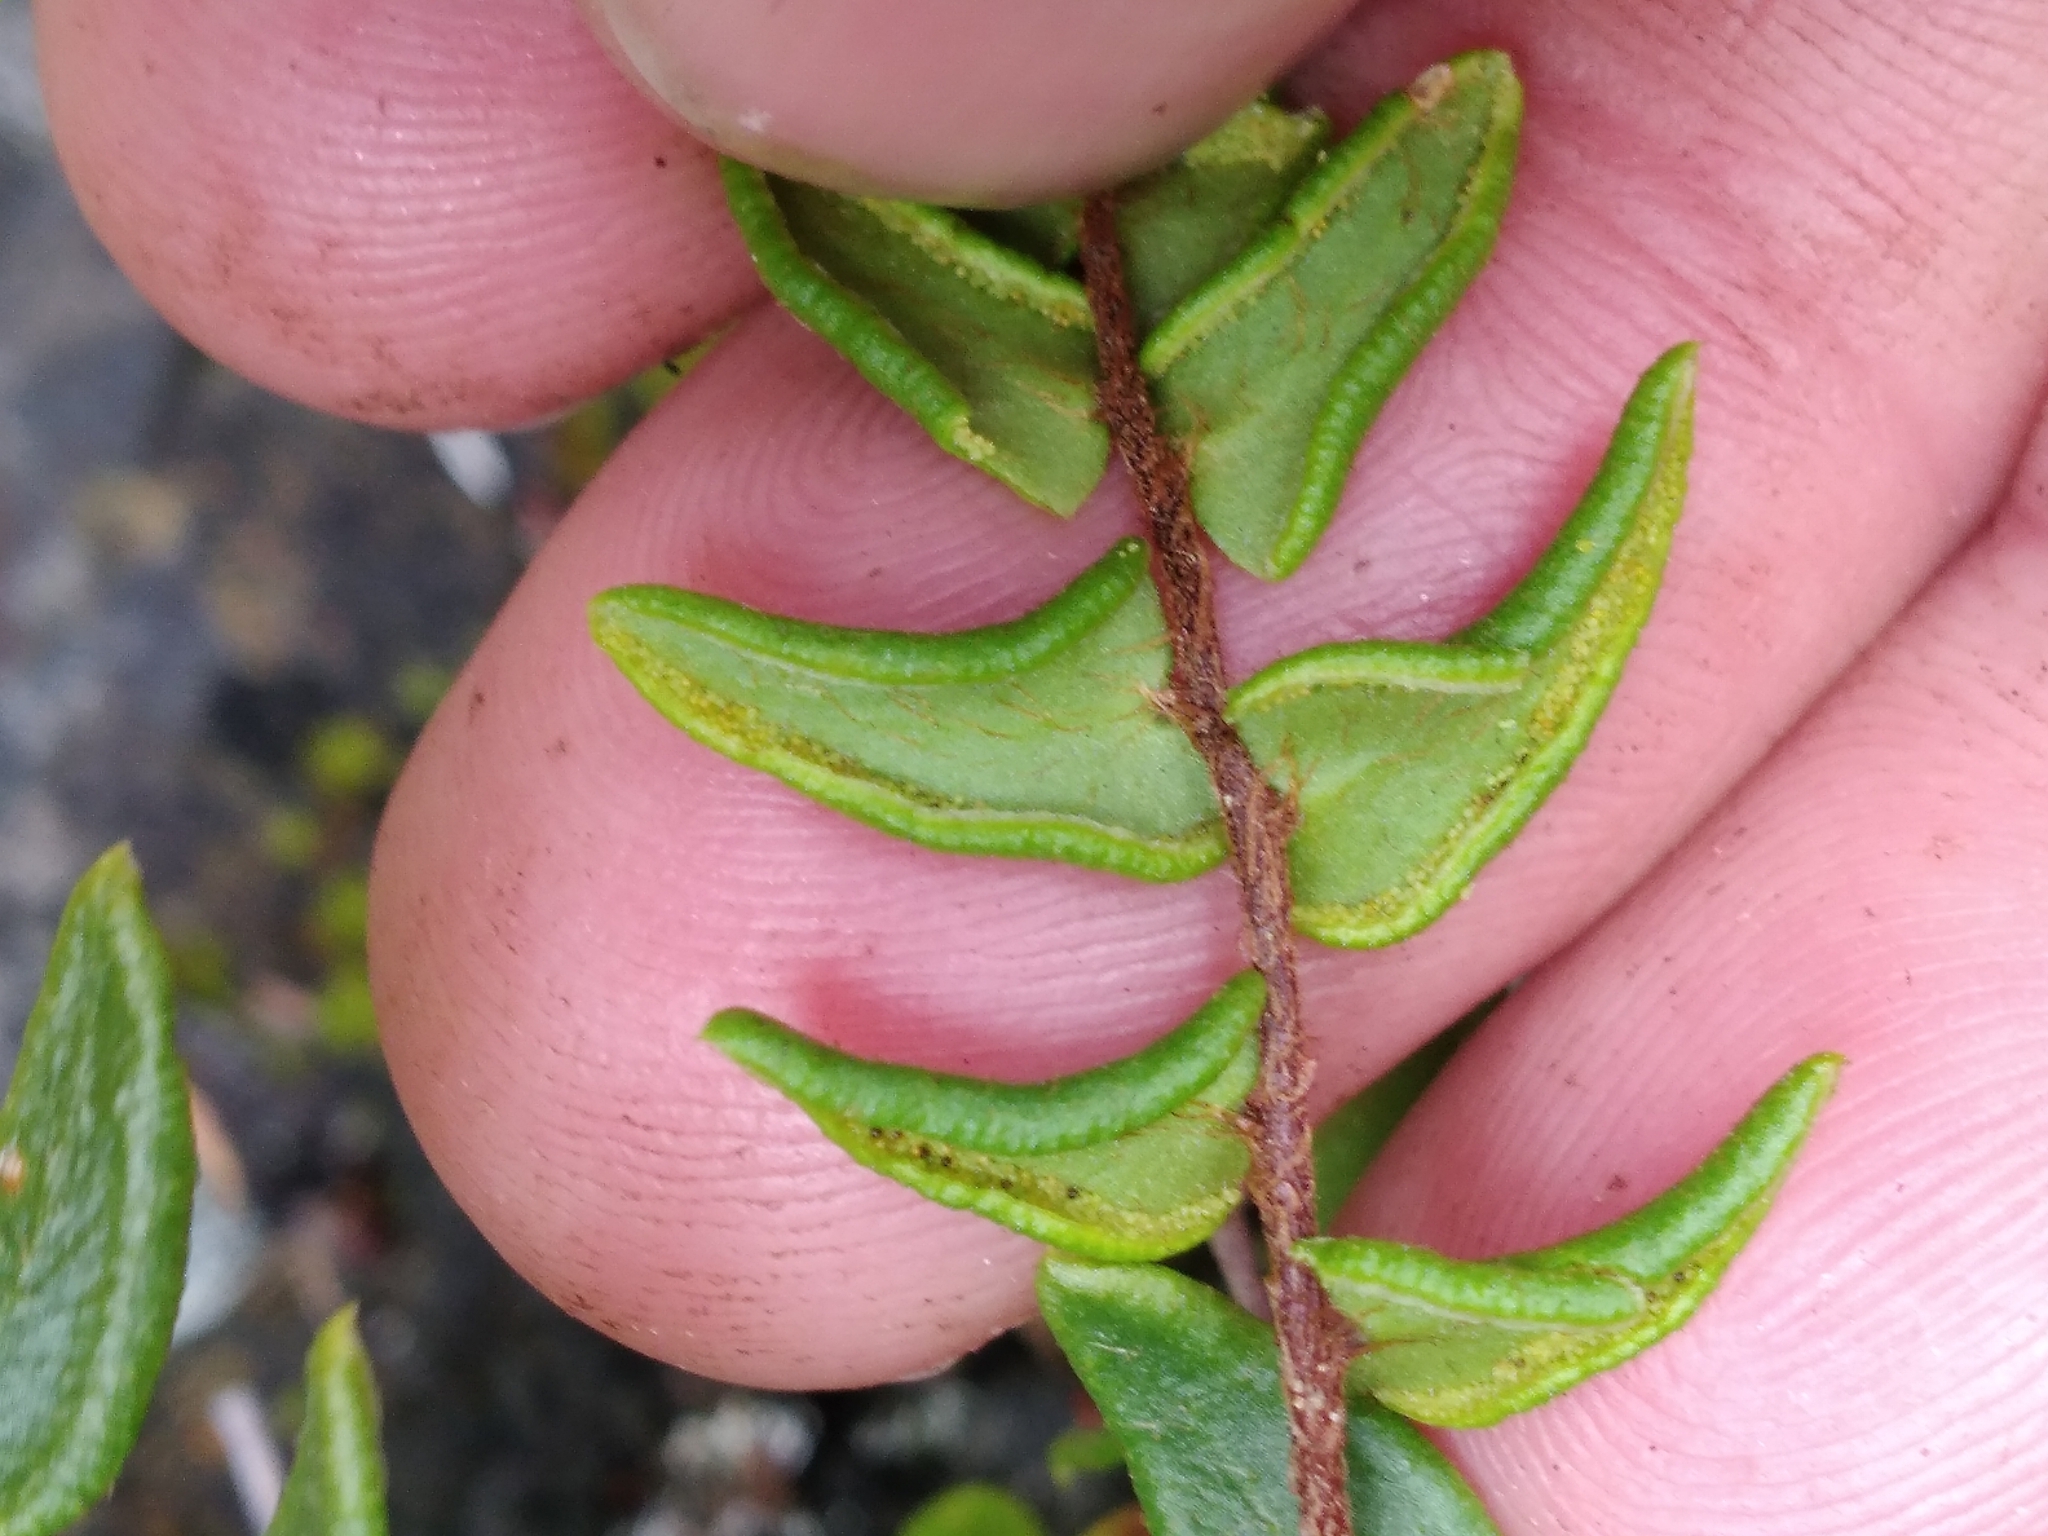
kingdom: Plantae
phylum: Tracheophyta
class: Polypodiopsida
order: Polypodiales
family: Pteridaceae
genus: Pellaea
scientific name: Pellaea calidirupium
